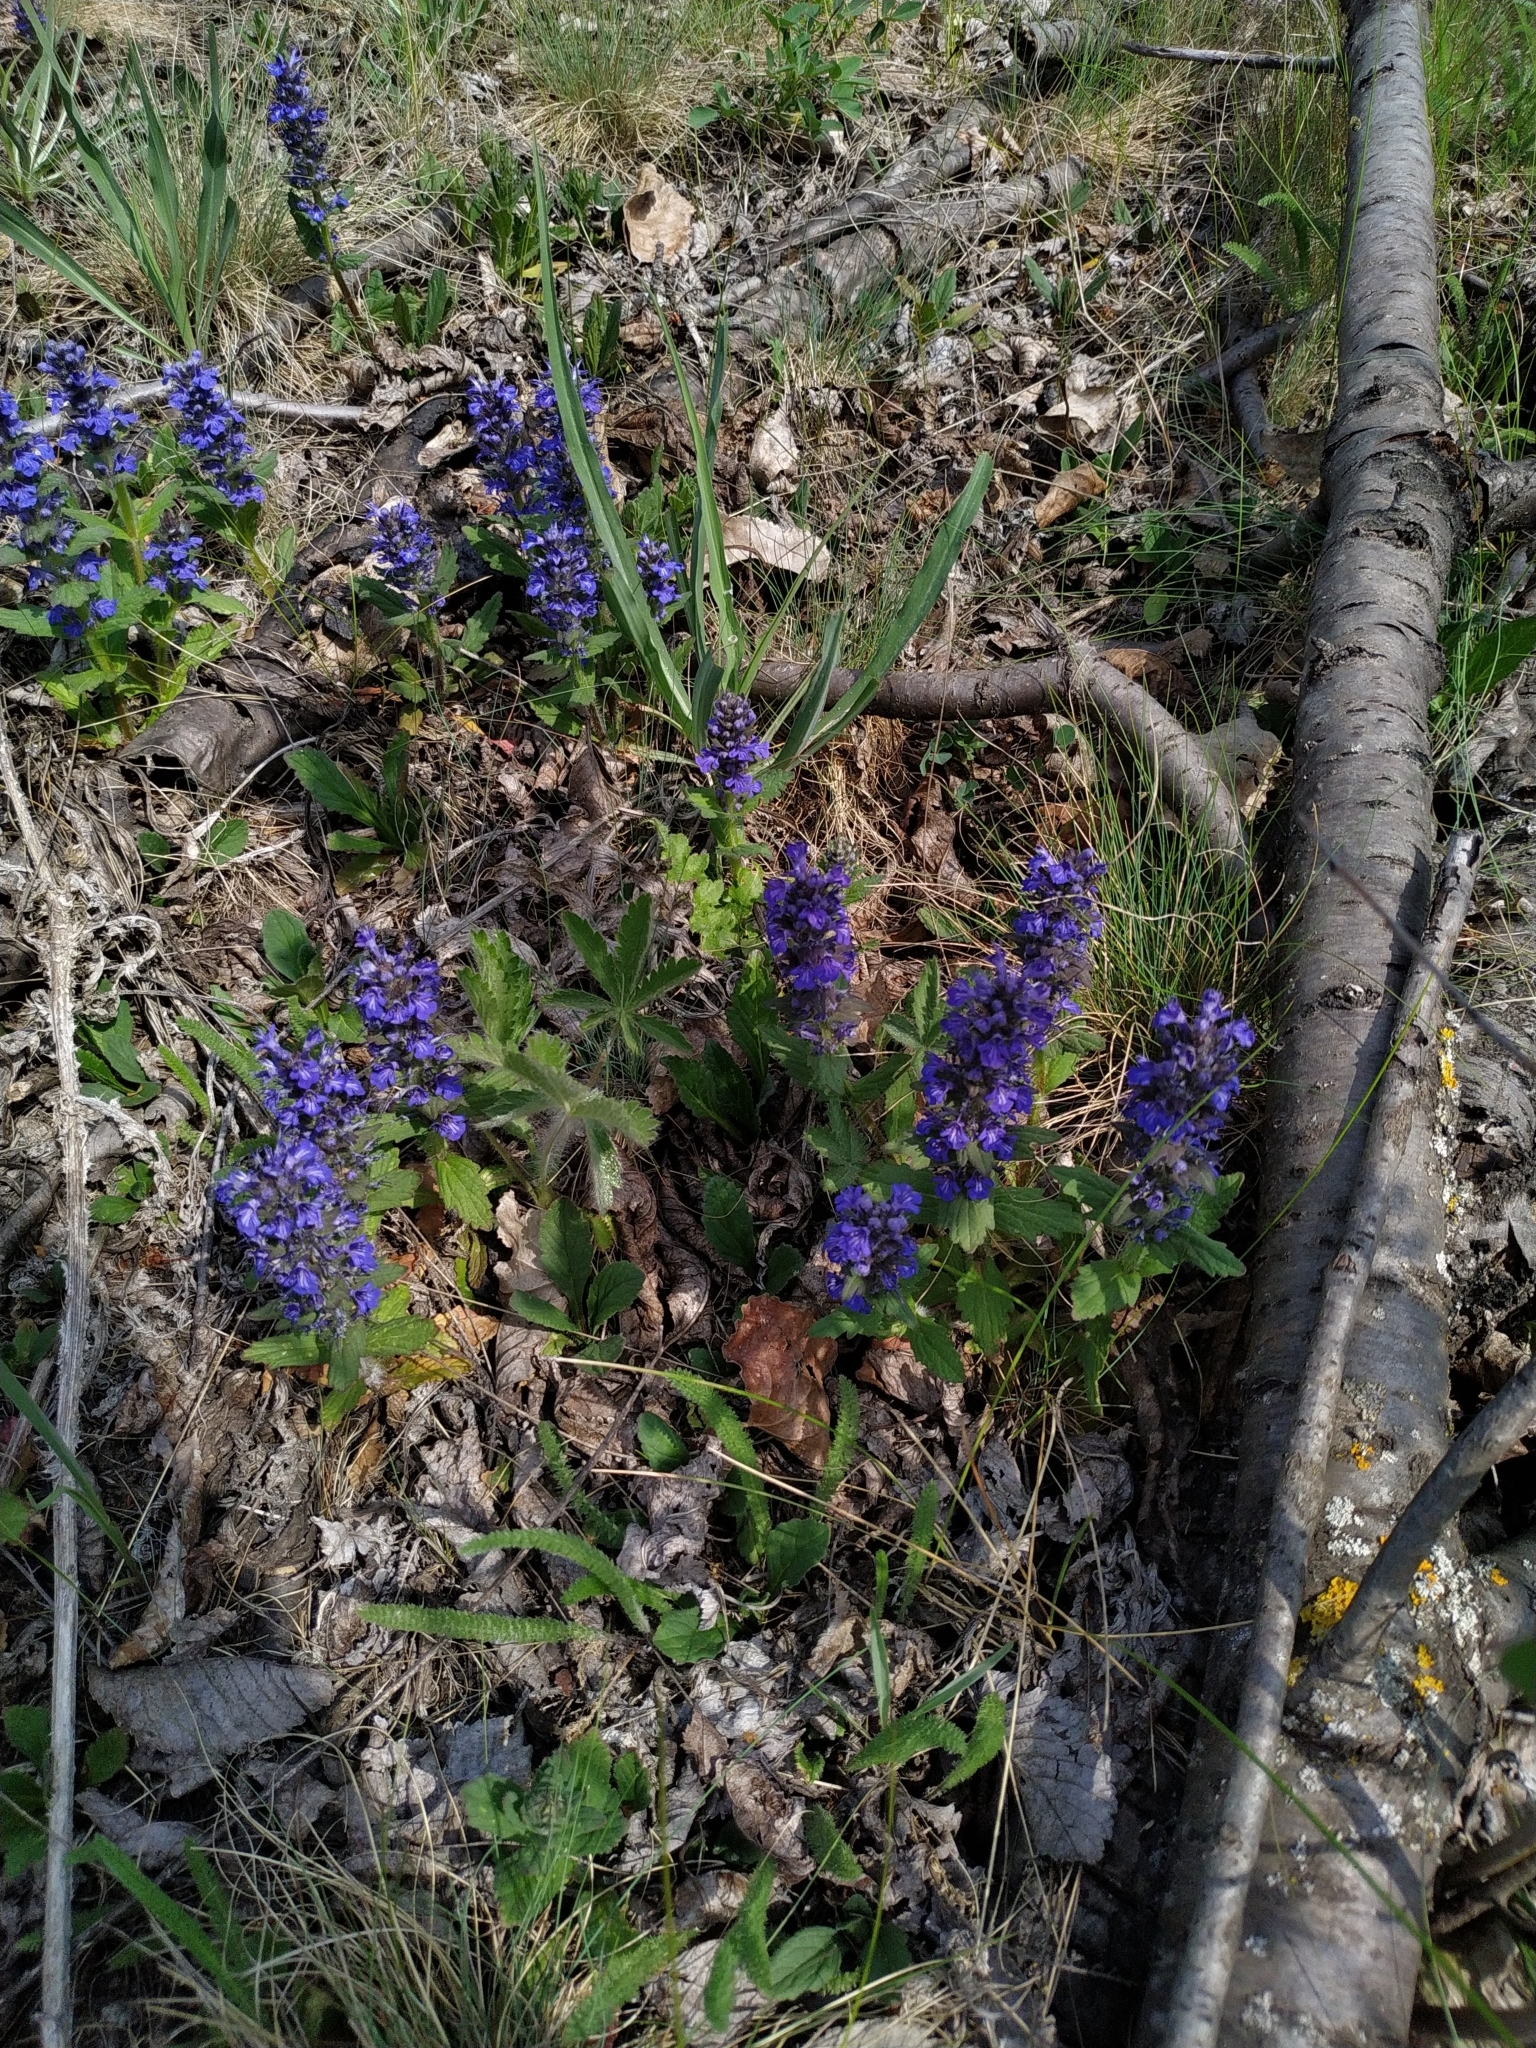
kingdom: Plantae
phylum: Tracheophyta
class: Magnoliopsida
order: Lamiales
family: Lamiaceae
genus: Ajuga
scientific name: Ajuga genevensis
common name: Blue bugle
